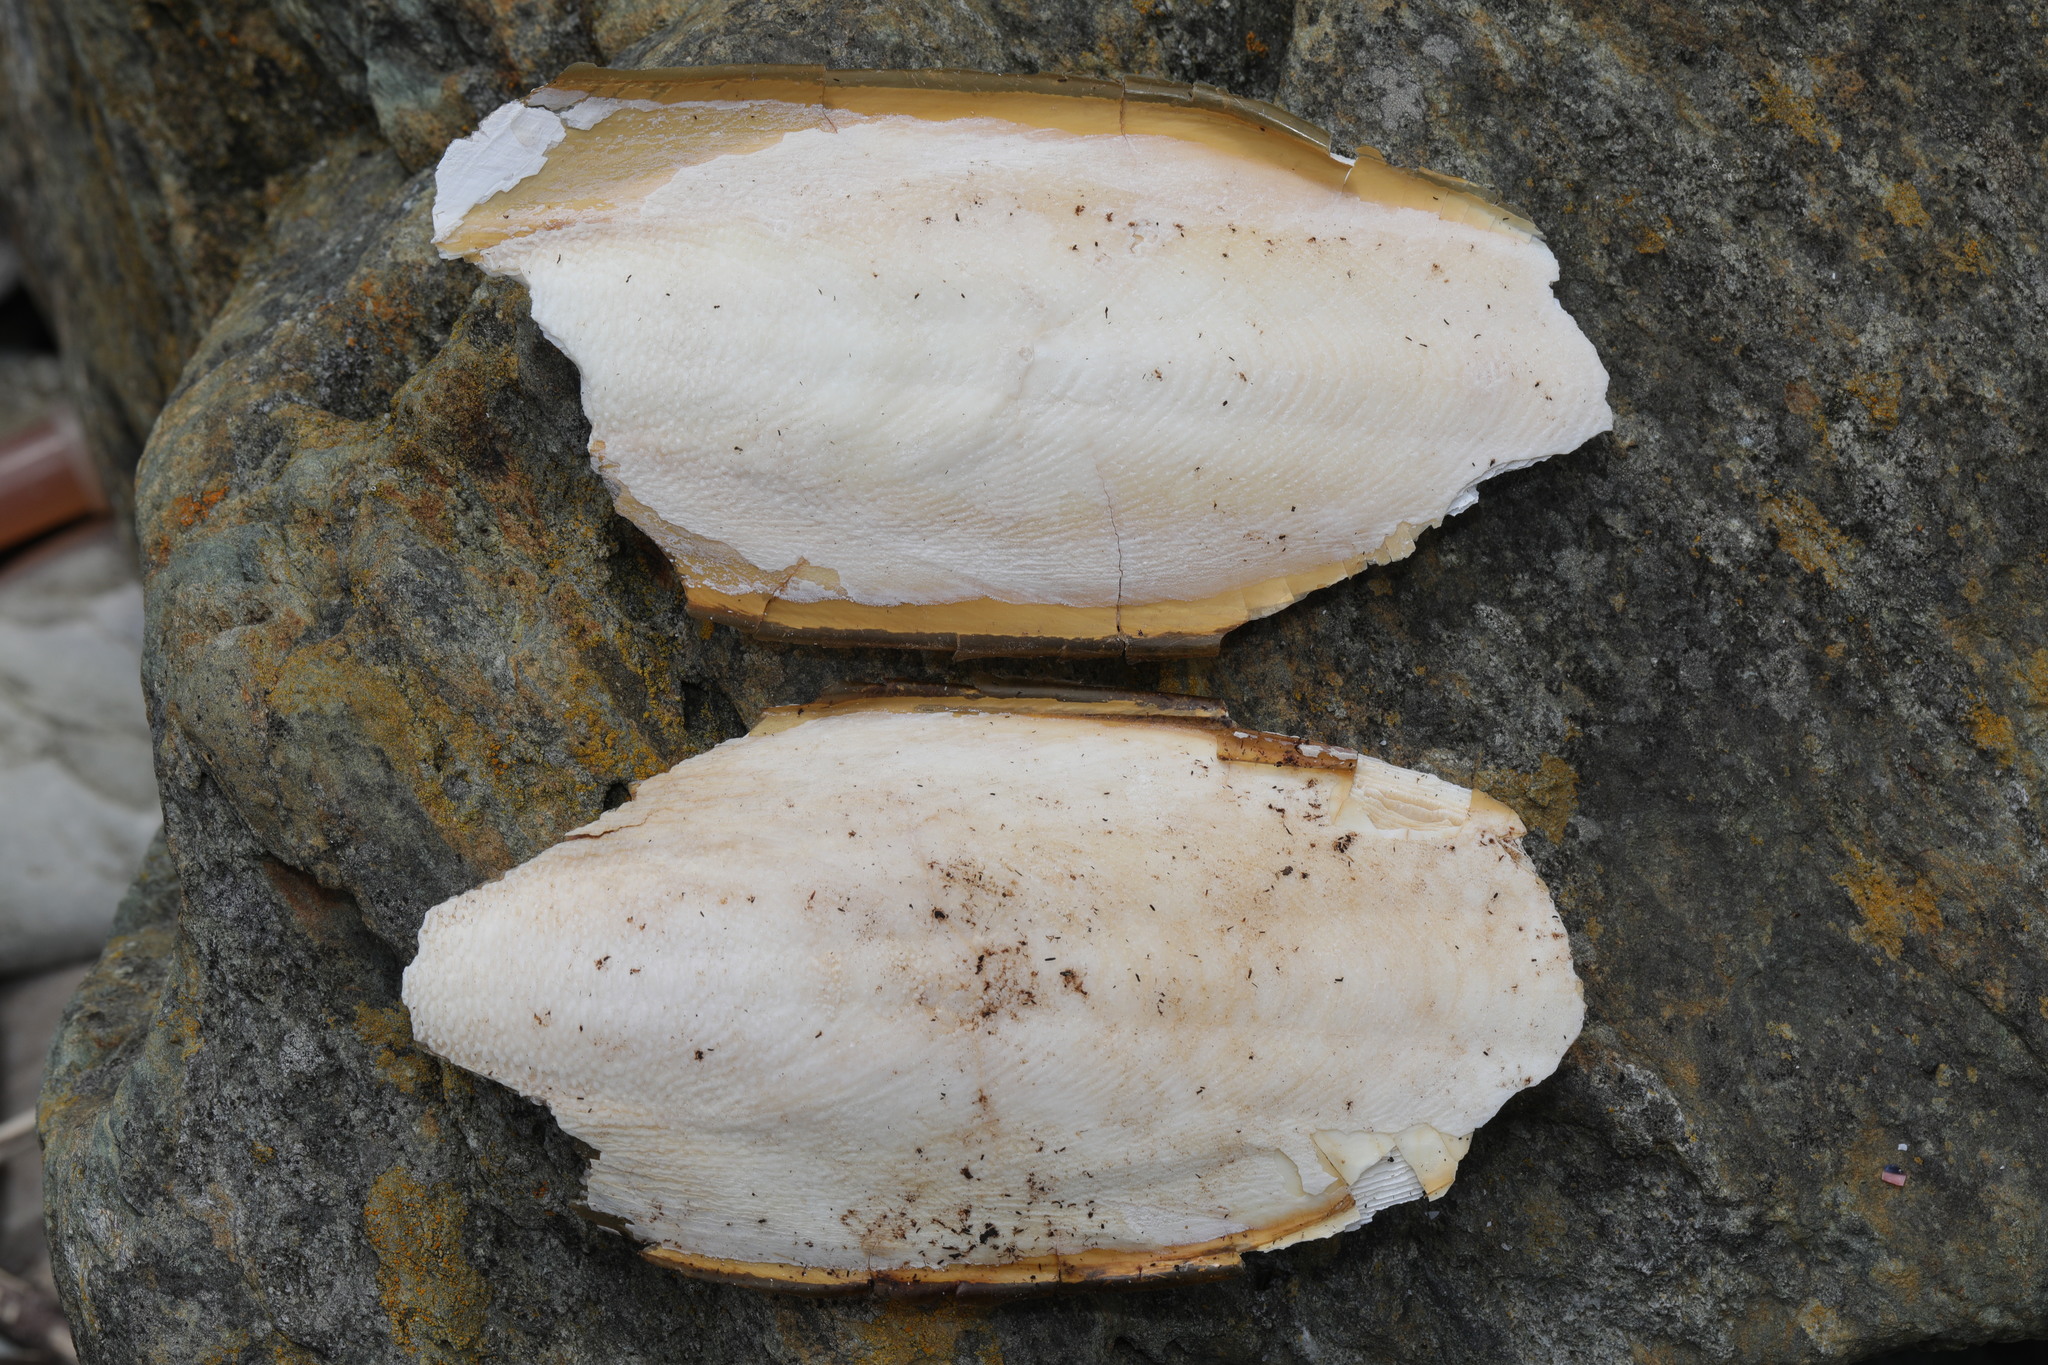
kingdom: Animalia
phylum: Mollusca
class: Cephalopoda
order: Sepiida
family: Sepiidae
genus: Sepia
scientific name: Sepia officinalis
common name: Common cuttlefish
